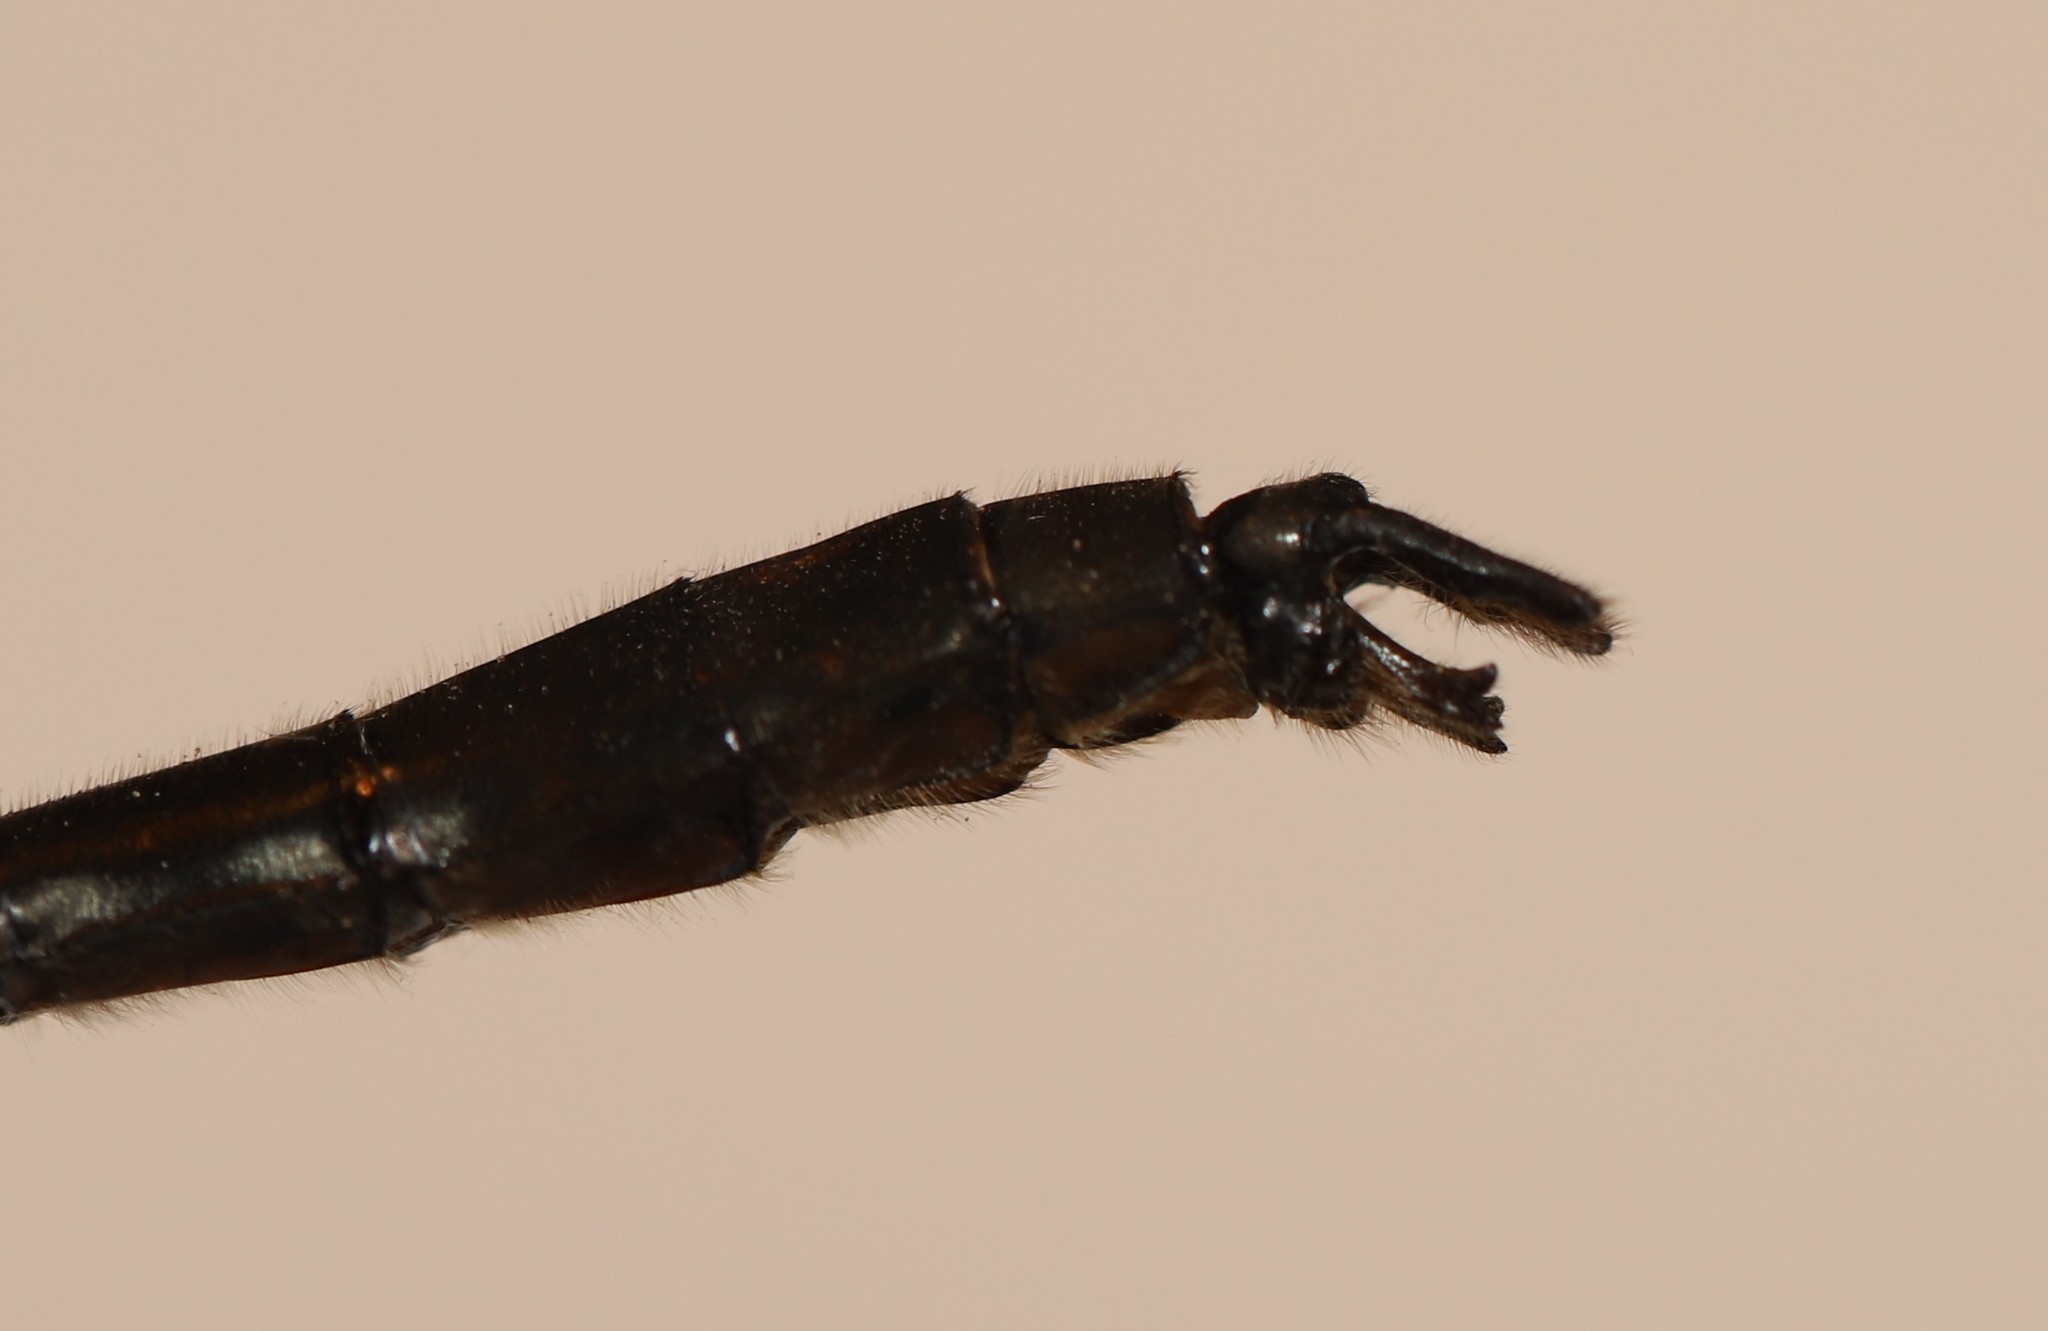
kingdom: Animalia
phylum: Arthropoda
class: Insecta
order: Odonata
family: Corduliidae
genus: Cordulia
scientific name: Cordulia shurtleffii
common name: American emerald
